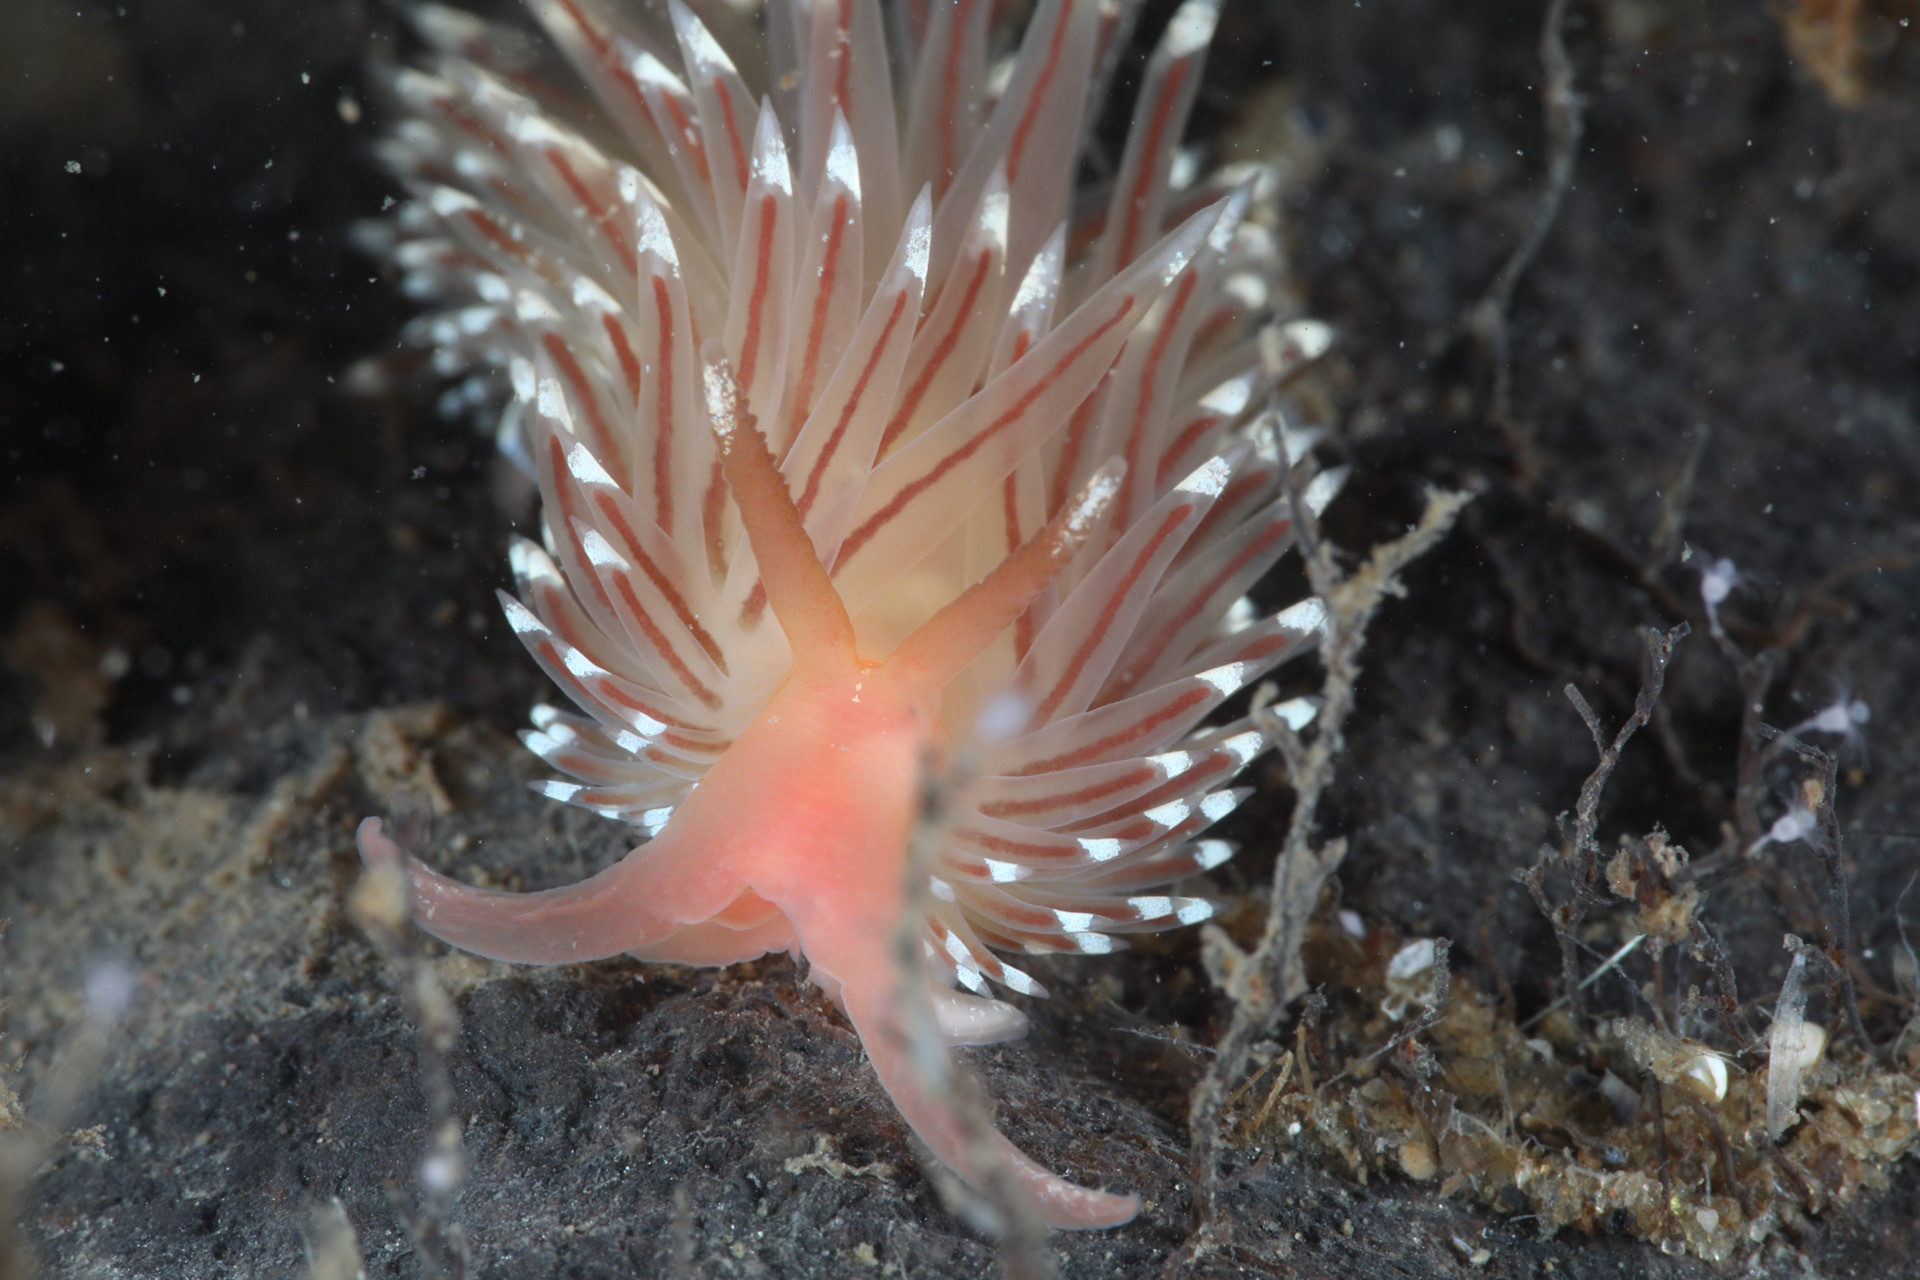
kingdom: Animalia
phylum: Mollusca
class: Gastropoda
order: Nudibranchia
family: Facelinidae
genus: Facelina
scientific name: Facelina bostoniensis
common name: Boston facelina
